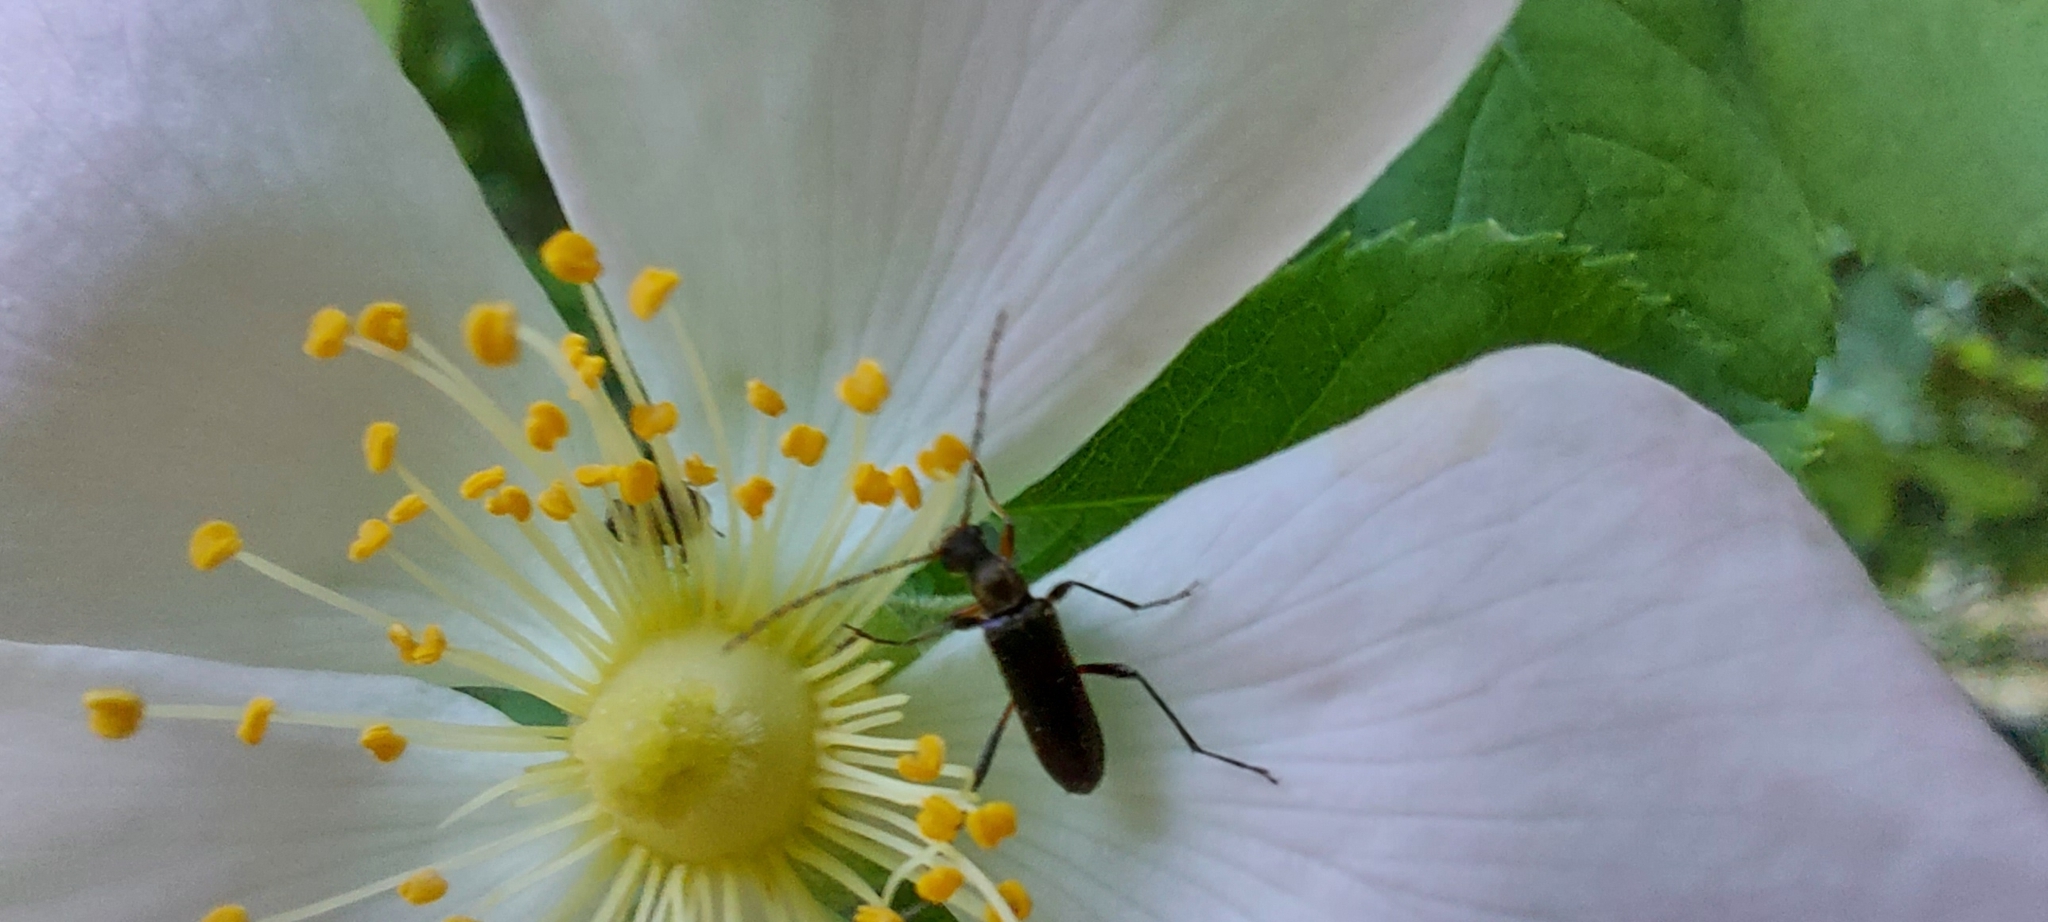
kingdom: Animalia
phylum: Arthropoda
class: Insecta
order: Coleoptera
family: Cerambycidae
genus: Grammoptera
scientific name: Grammoptera ruficornis
